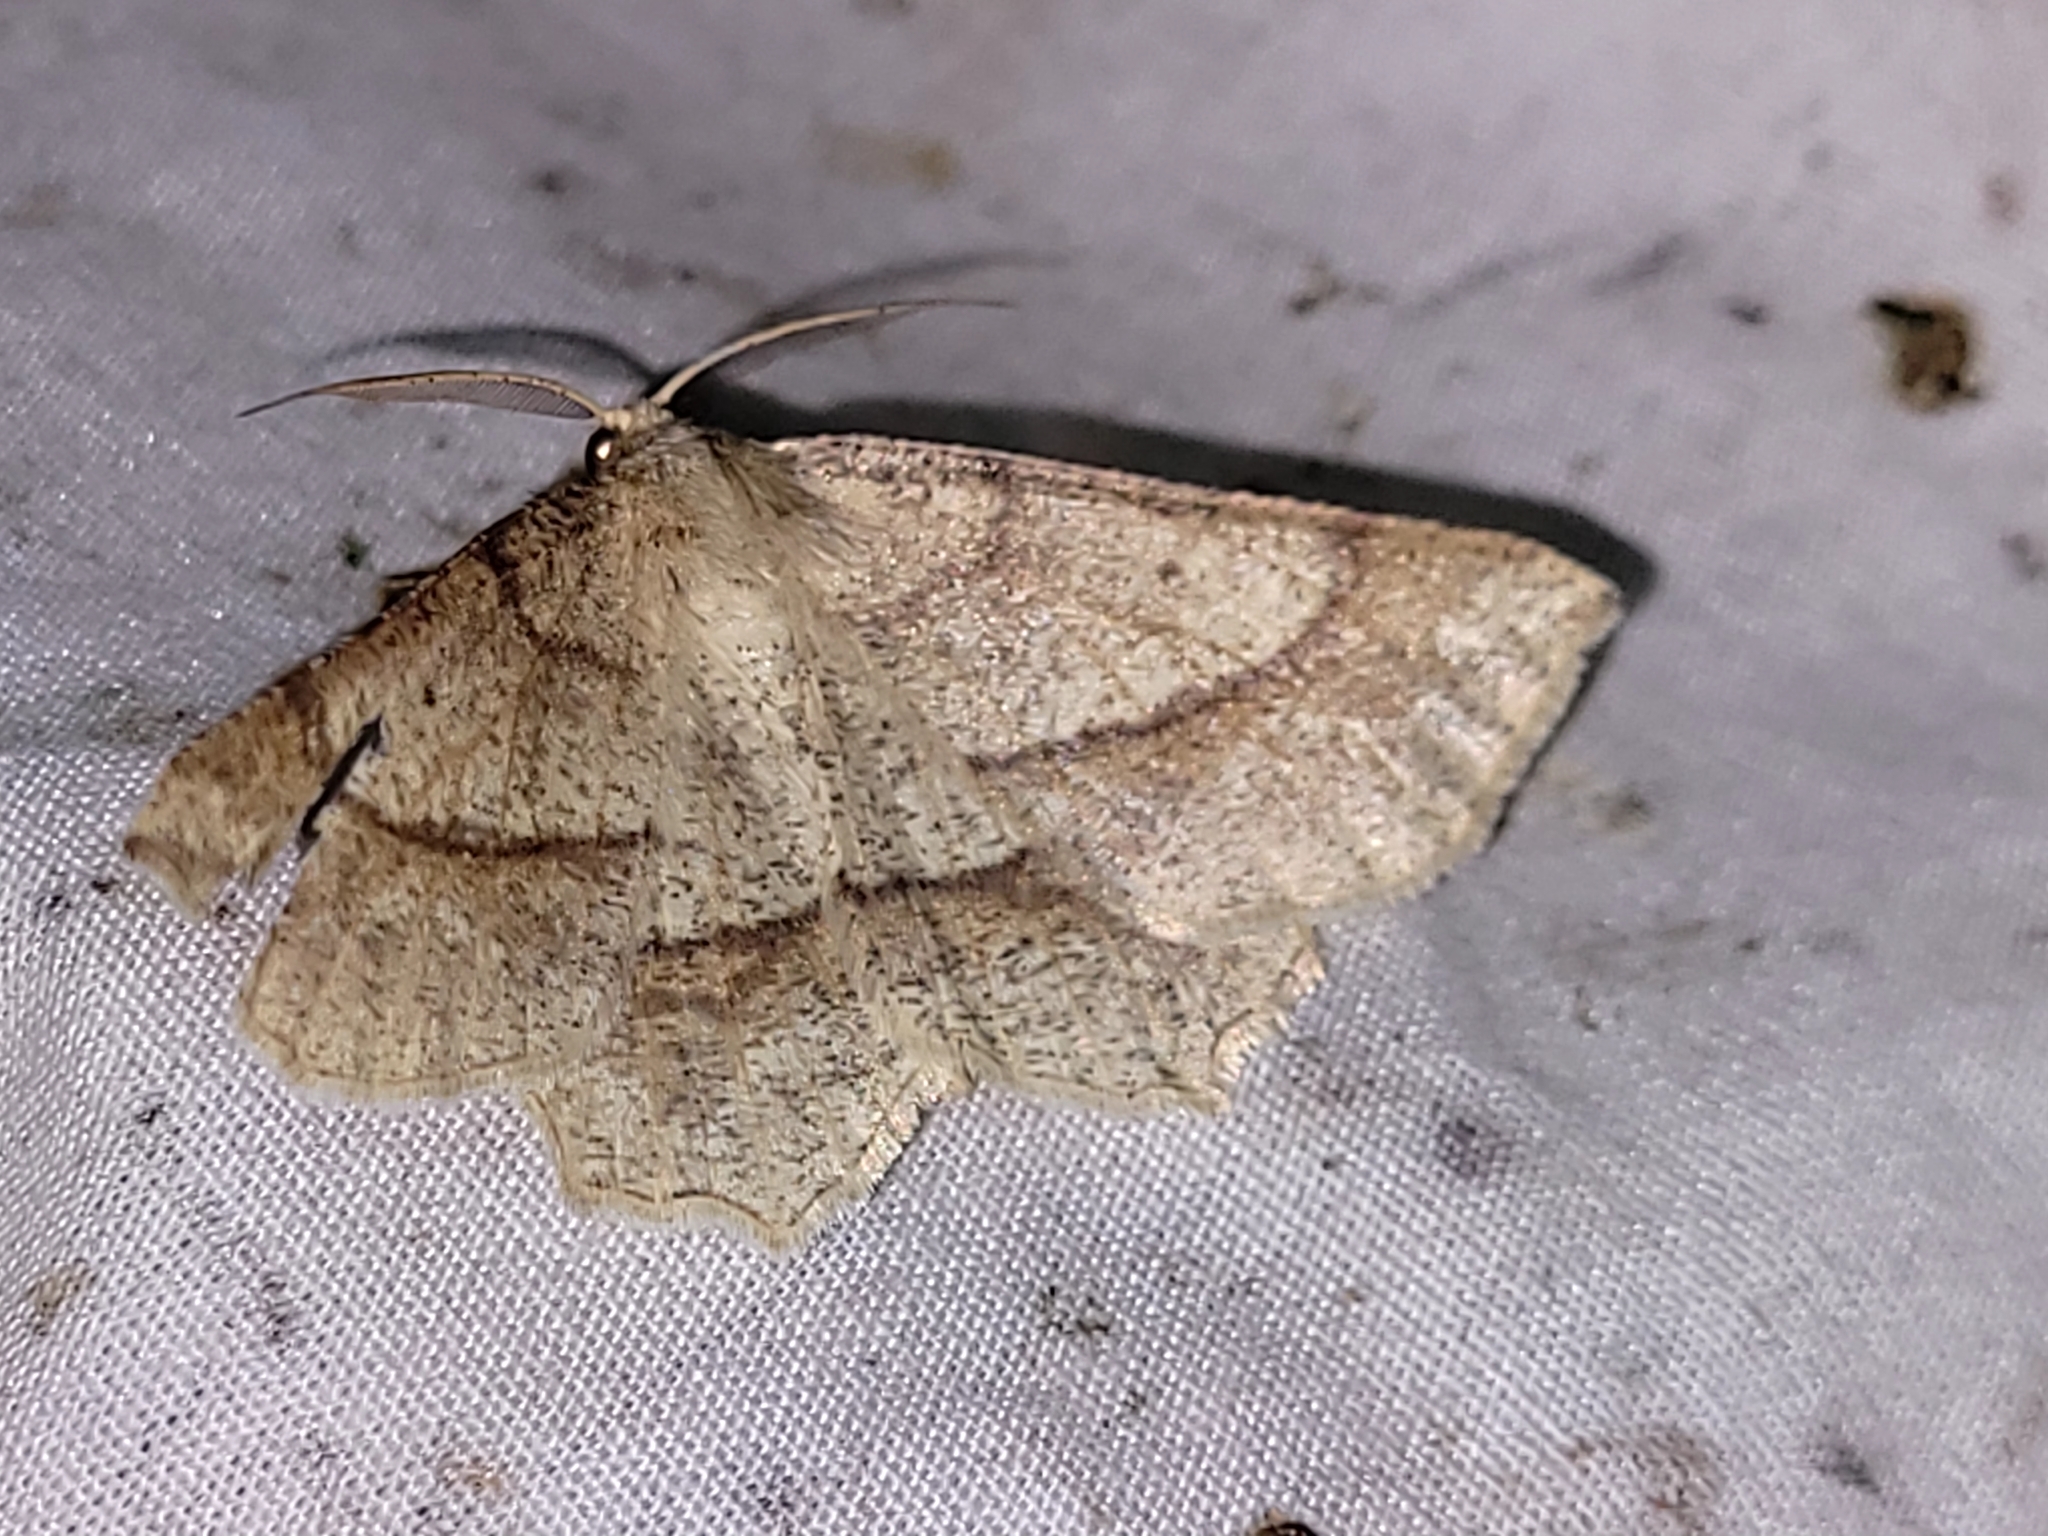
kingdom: Animalia
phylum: Arthropoda
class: Insecta
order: Lepidoptera
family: Geometridae
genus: Euchlaena
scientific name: Euchlaena marginaria
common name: Ochre euchlaena moth
